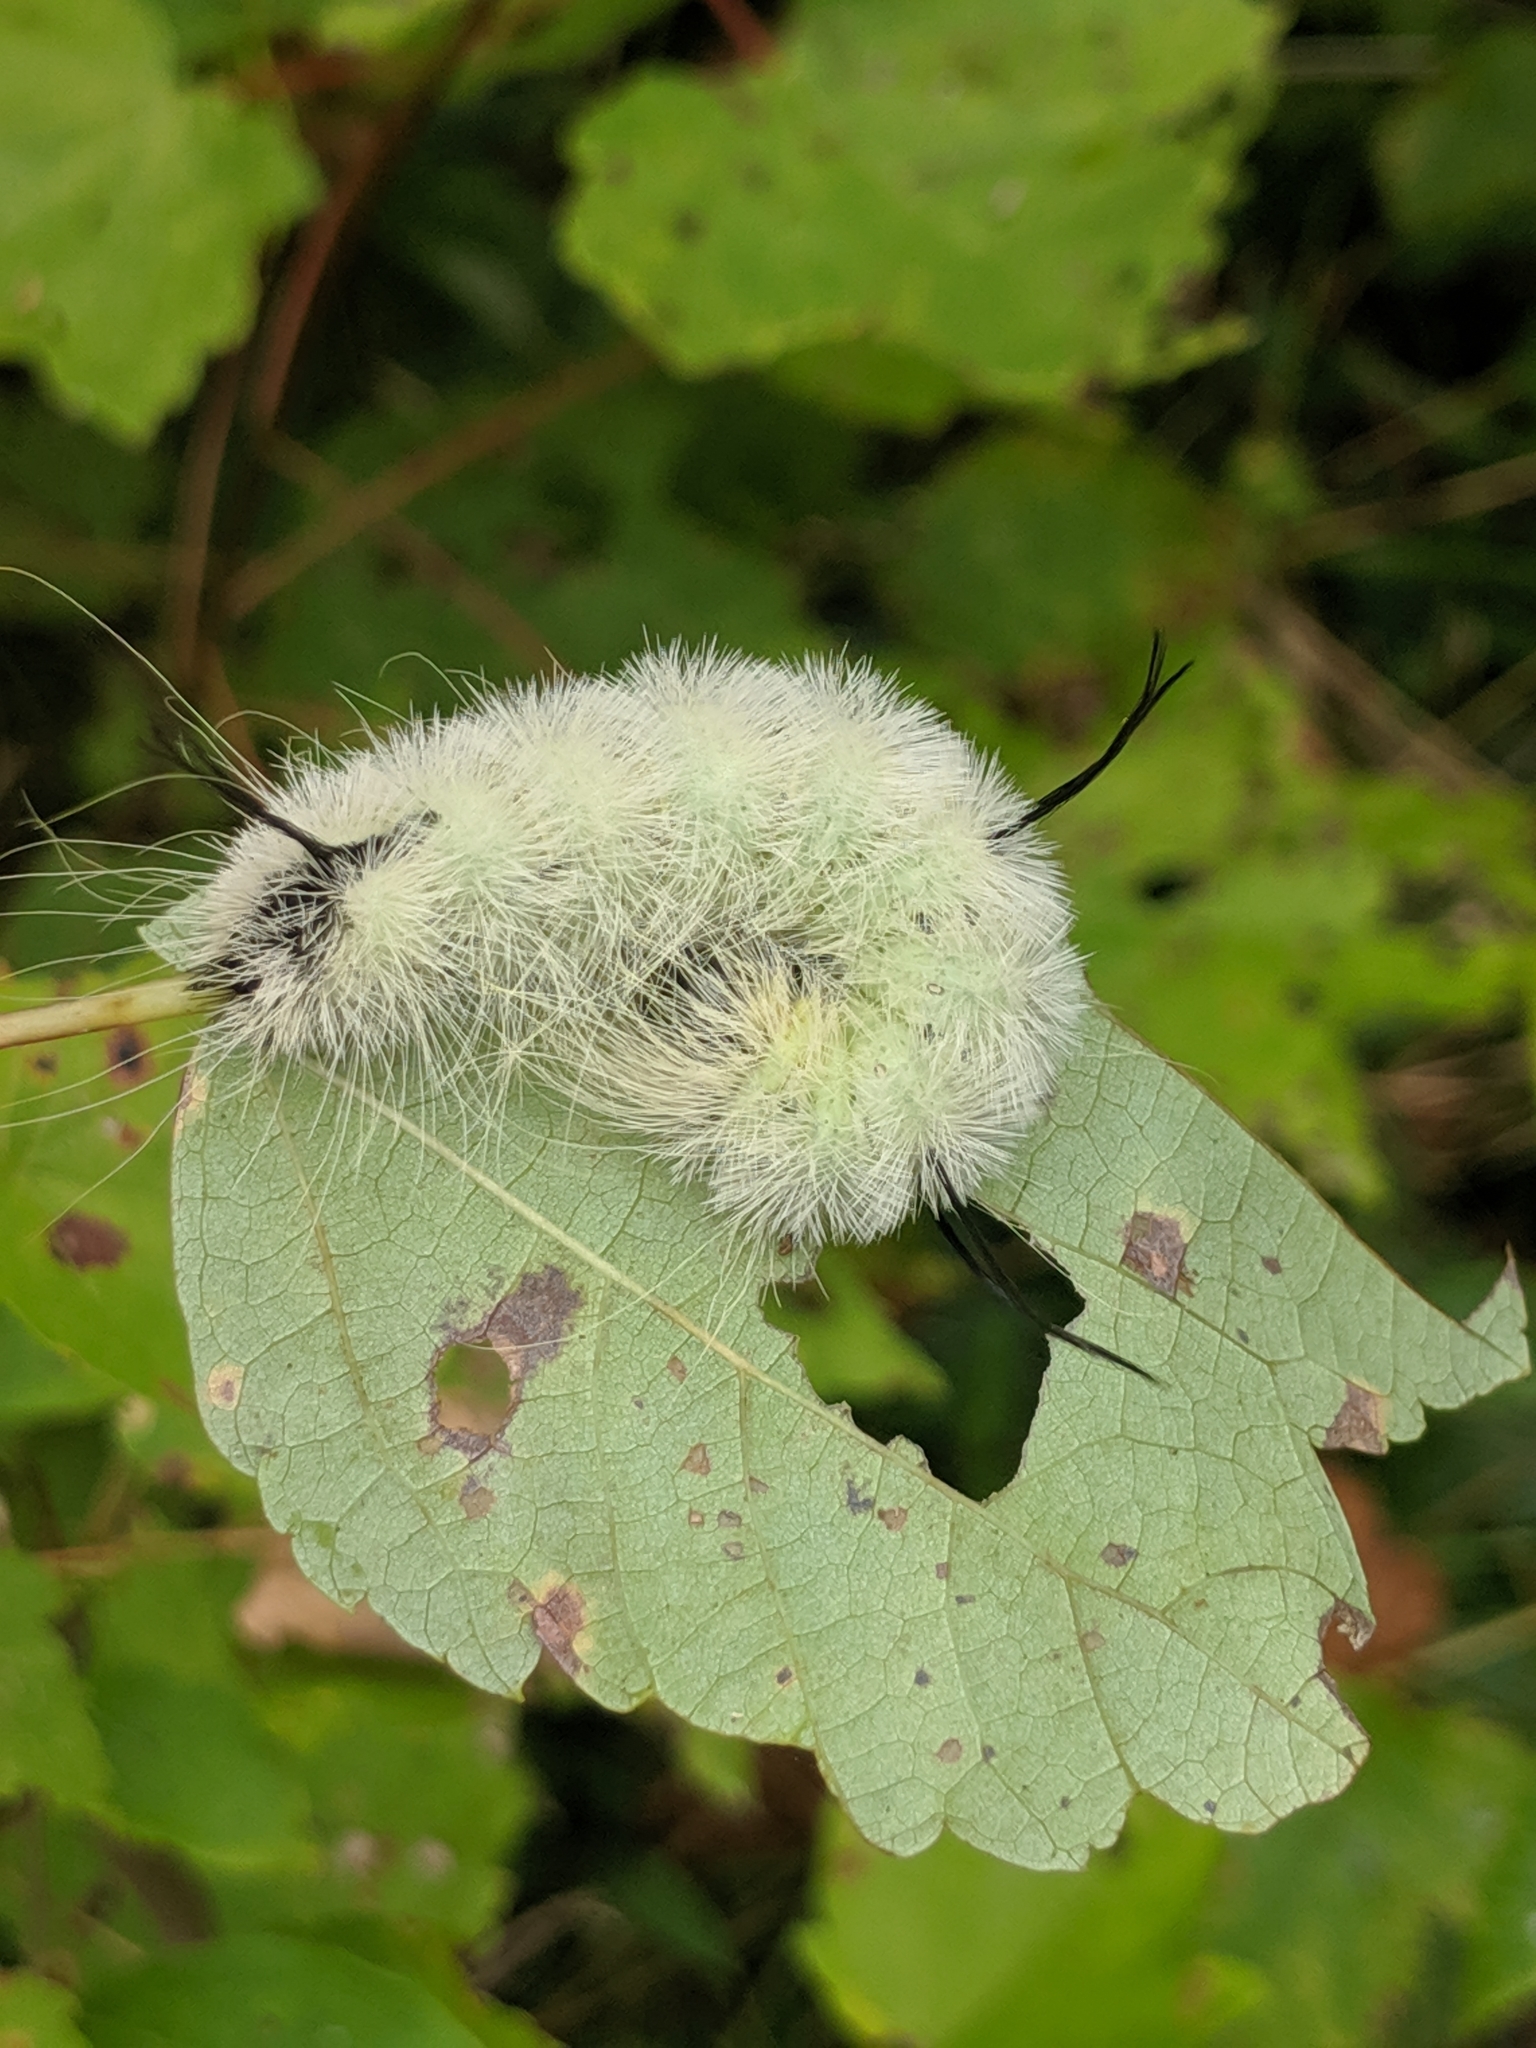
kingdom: Animalia
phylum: Arthropoda
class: Insecta
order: Lepidoptera
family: Noctuidae
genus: Acronicta
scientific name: Acronicta americana
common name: American dagger
